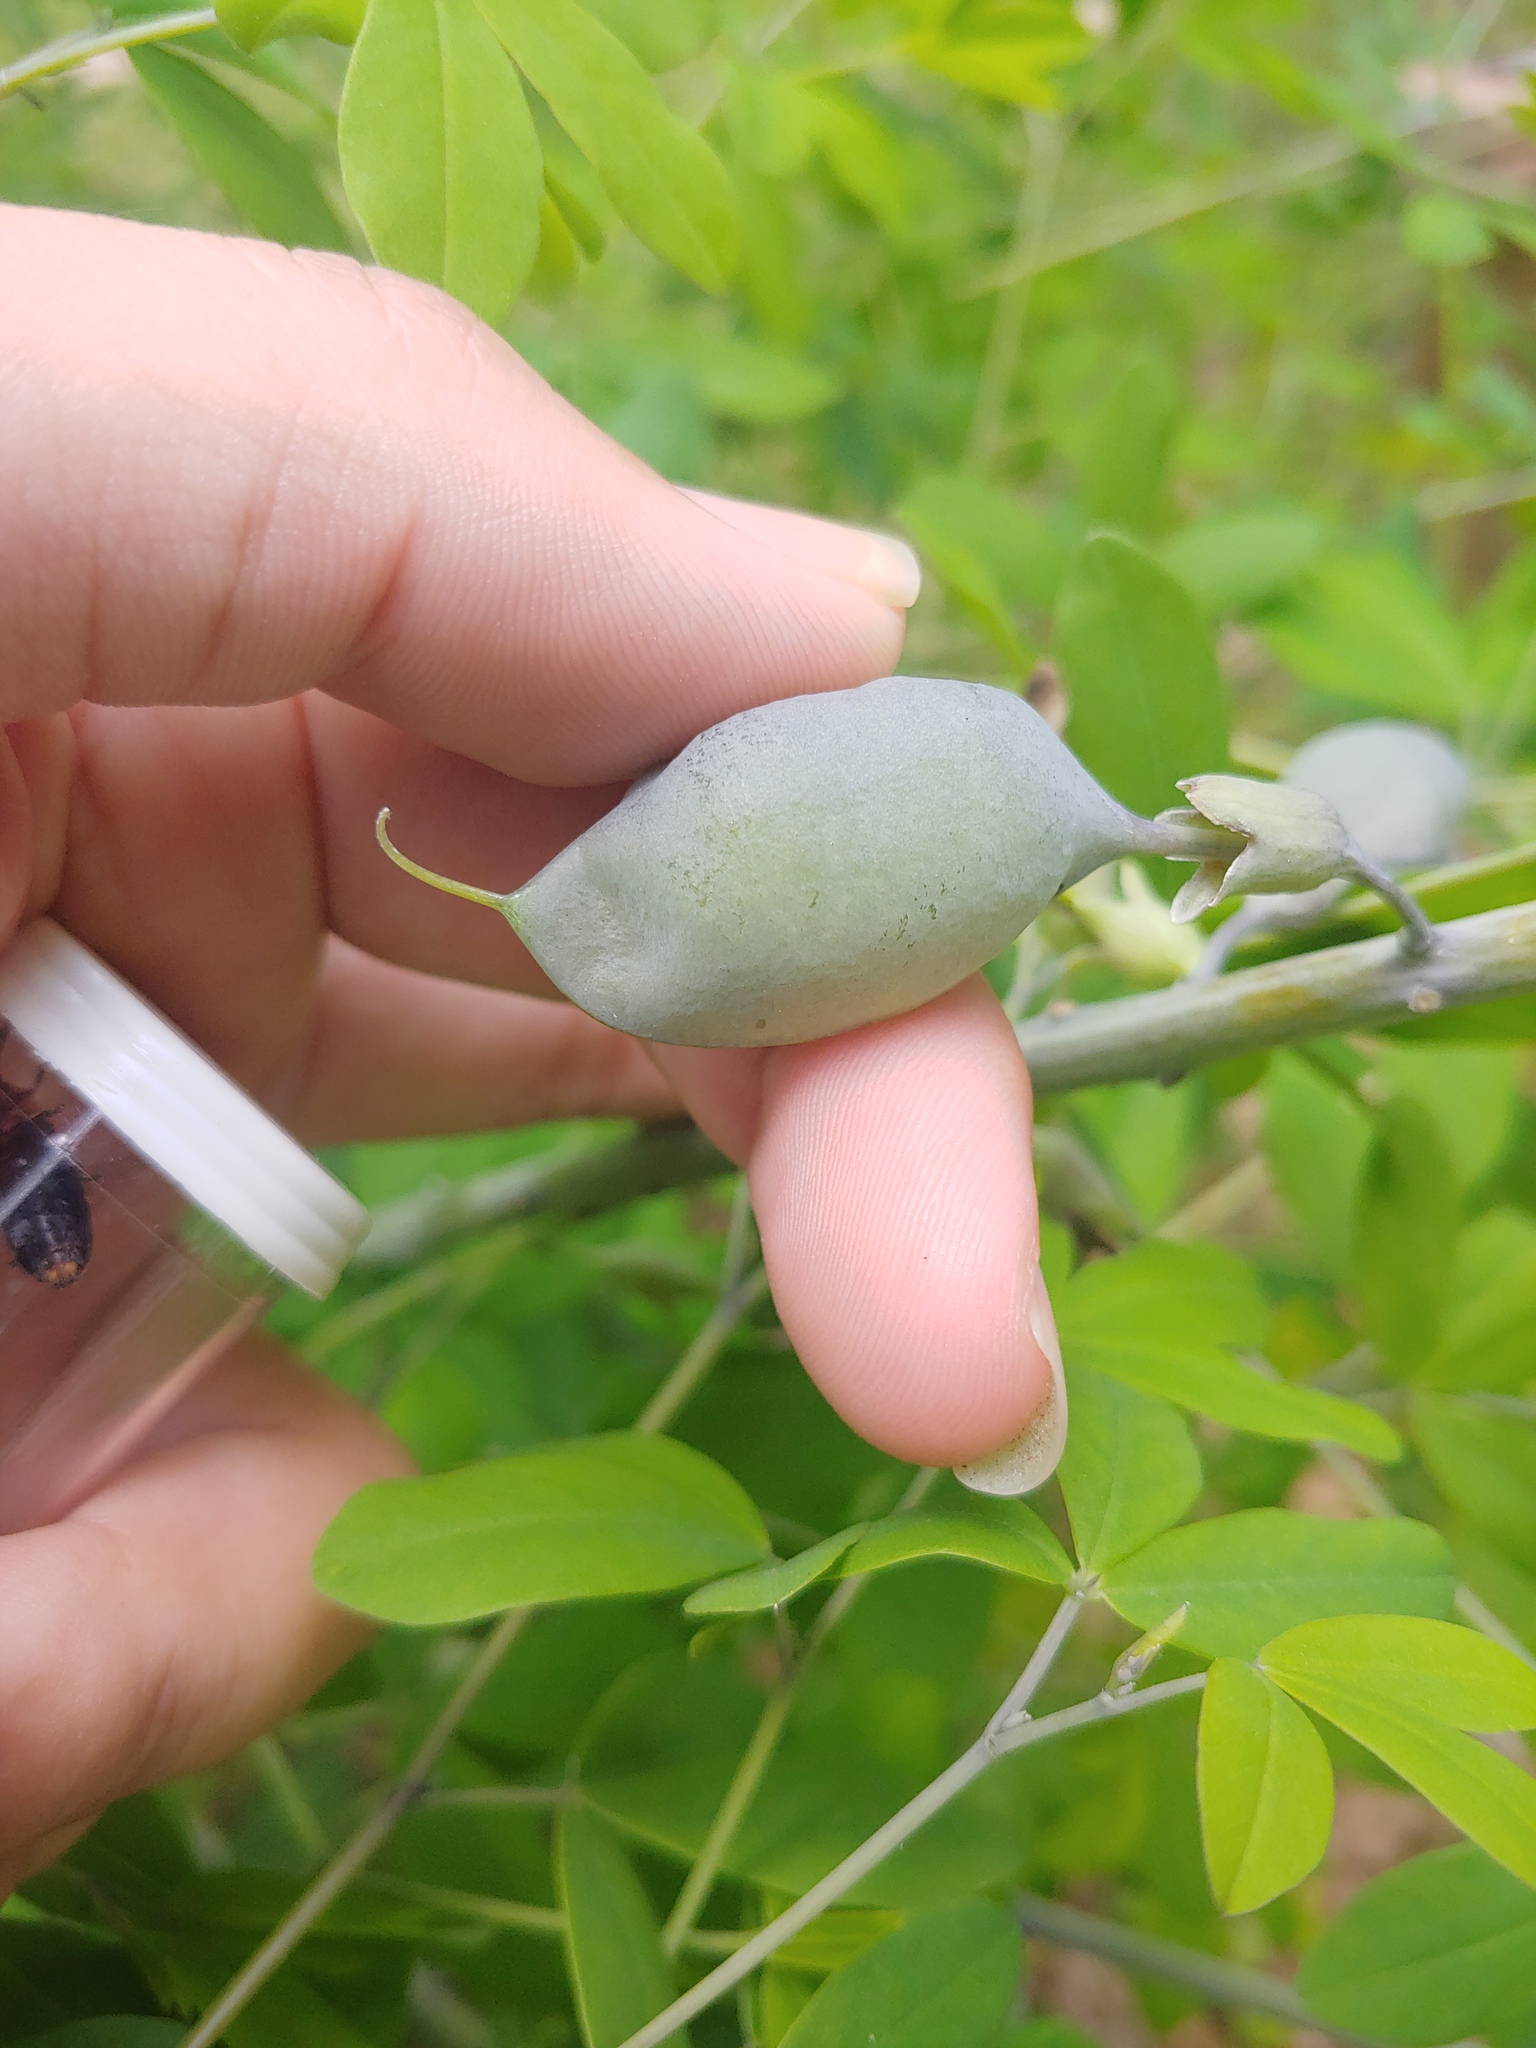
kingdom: Plantae
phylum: Tracheophyta
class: Magnoliopsida
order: Fabales
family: Fabaceae
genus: Baptisia
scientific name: Baptisia alba
